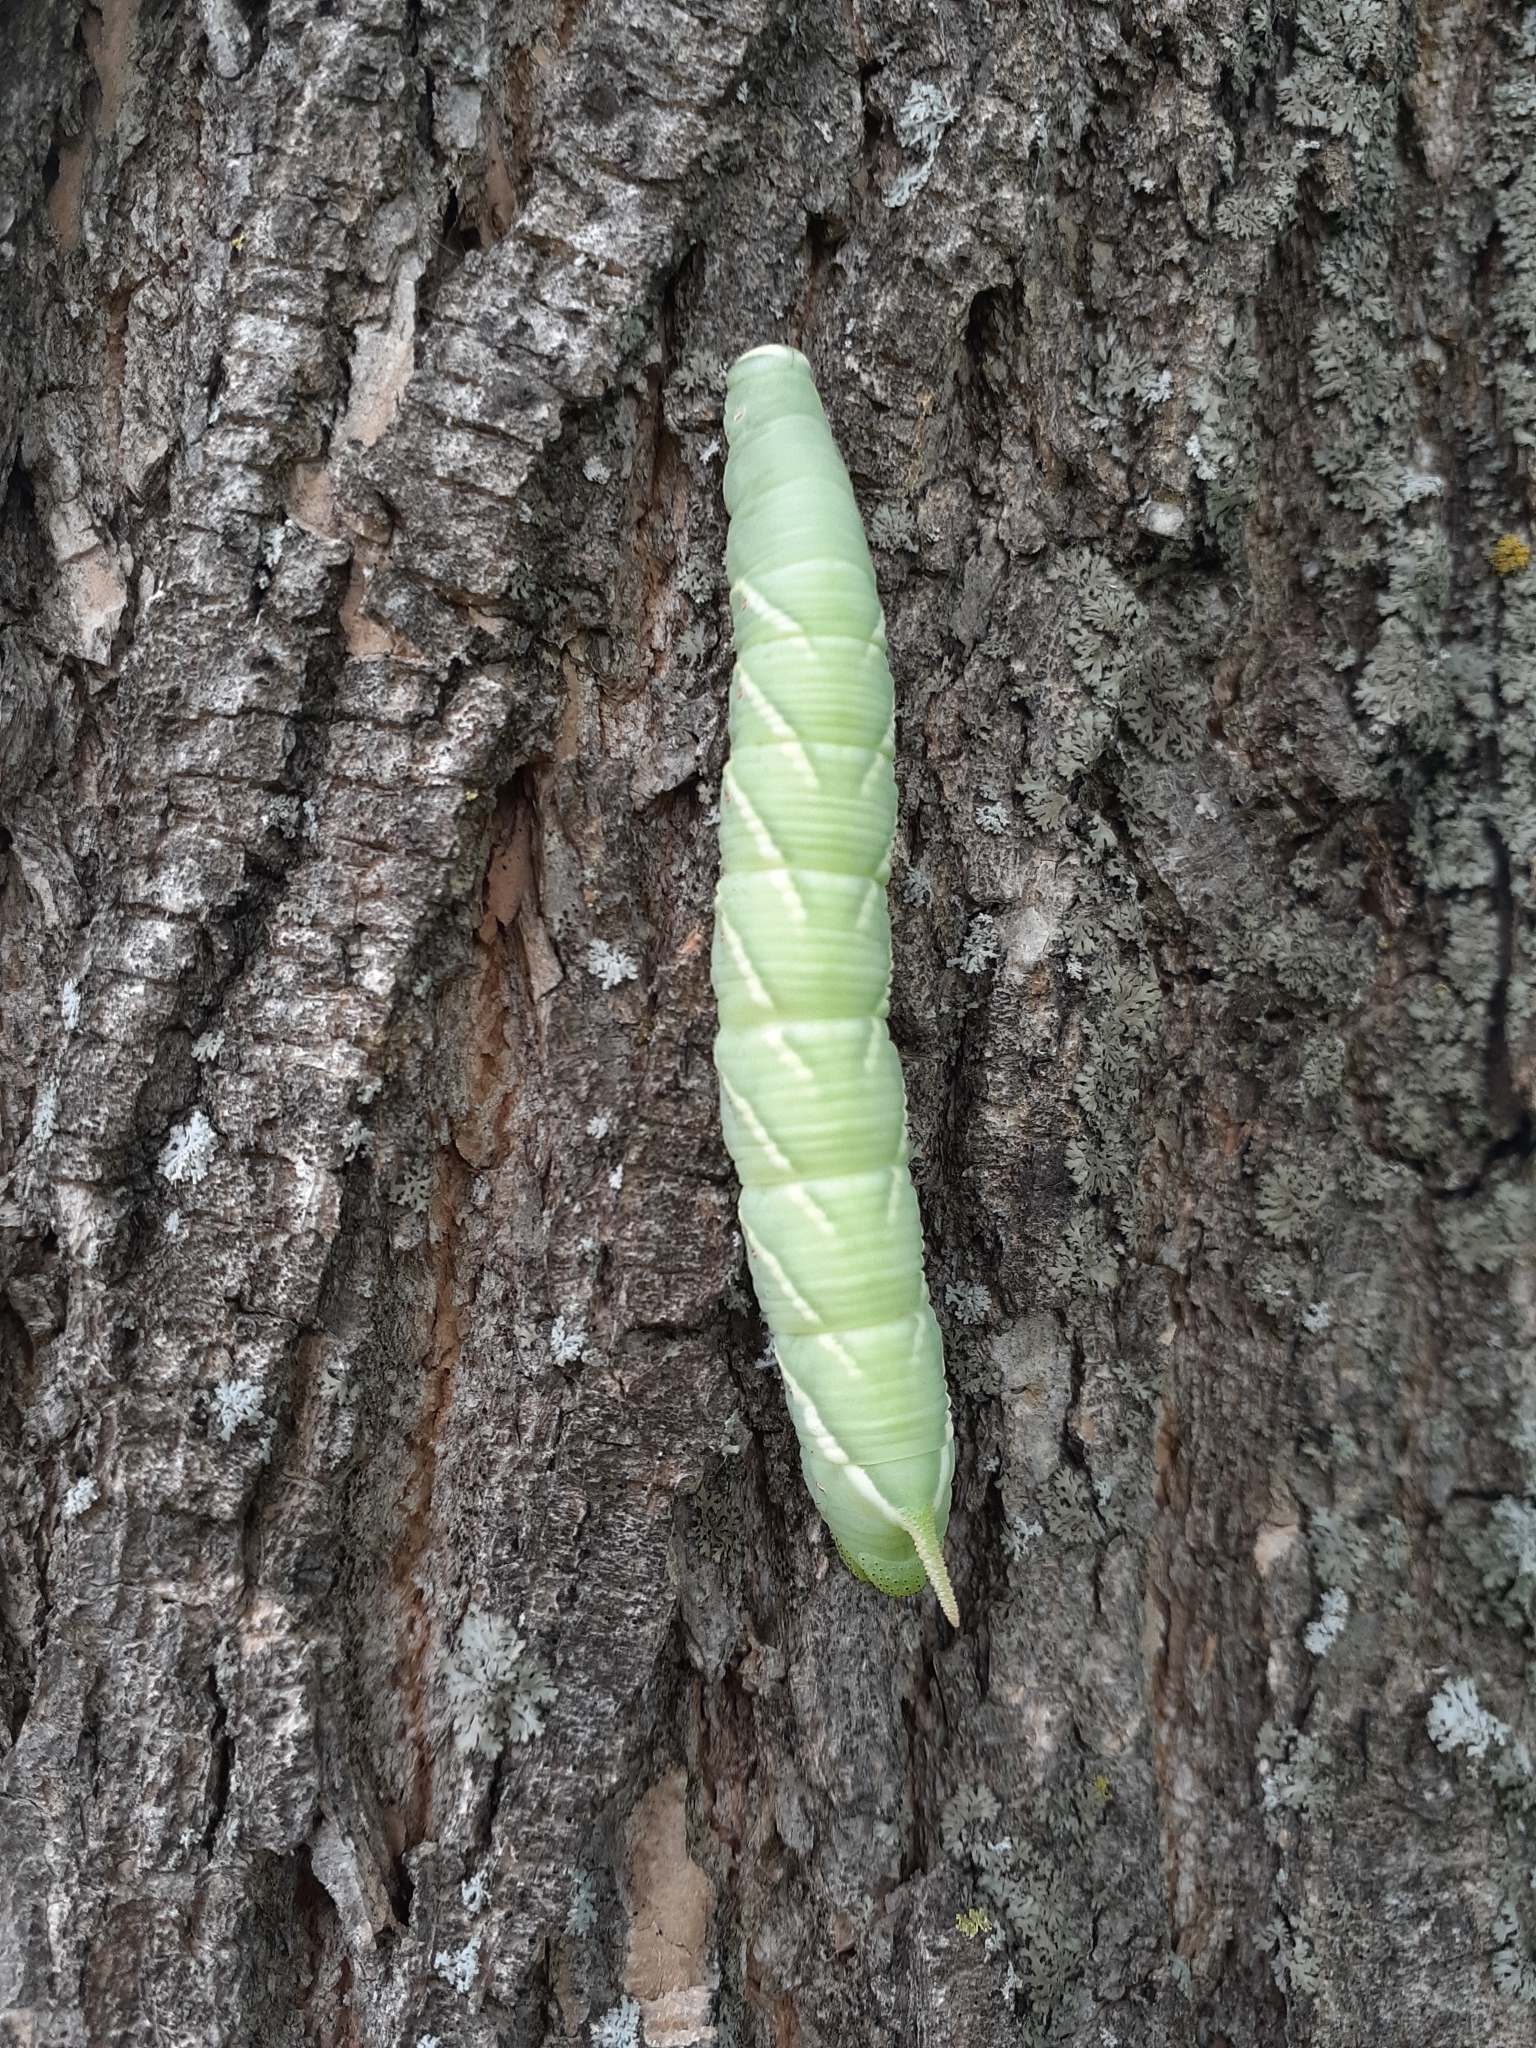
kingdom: Animalia
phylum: Arthropoda
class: Insecta
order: Lepidoptera
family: Sphingidae
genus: Ceratomia
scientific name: Ceratomia undulosa
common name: Waved sphinx
